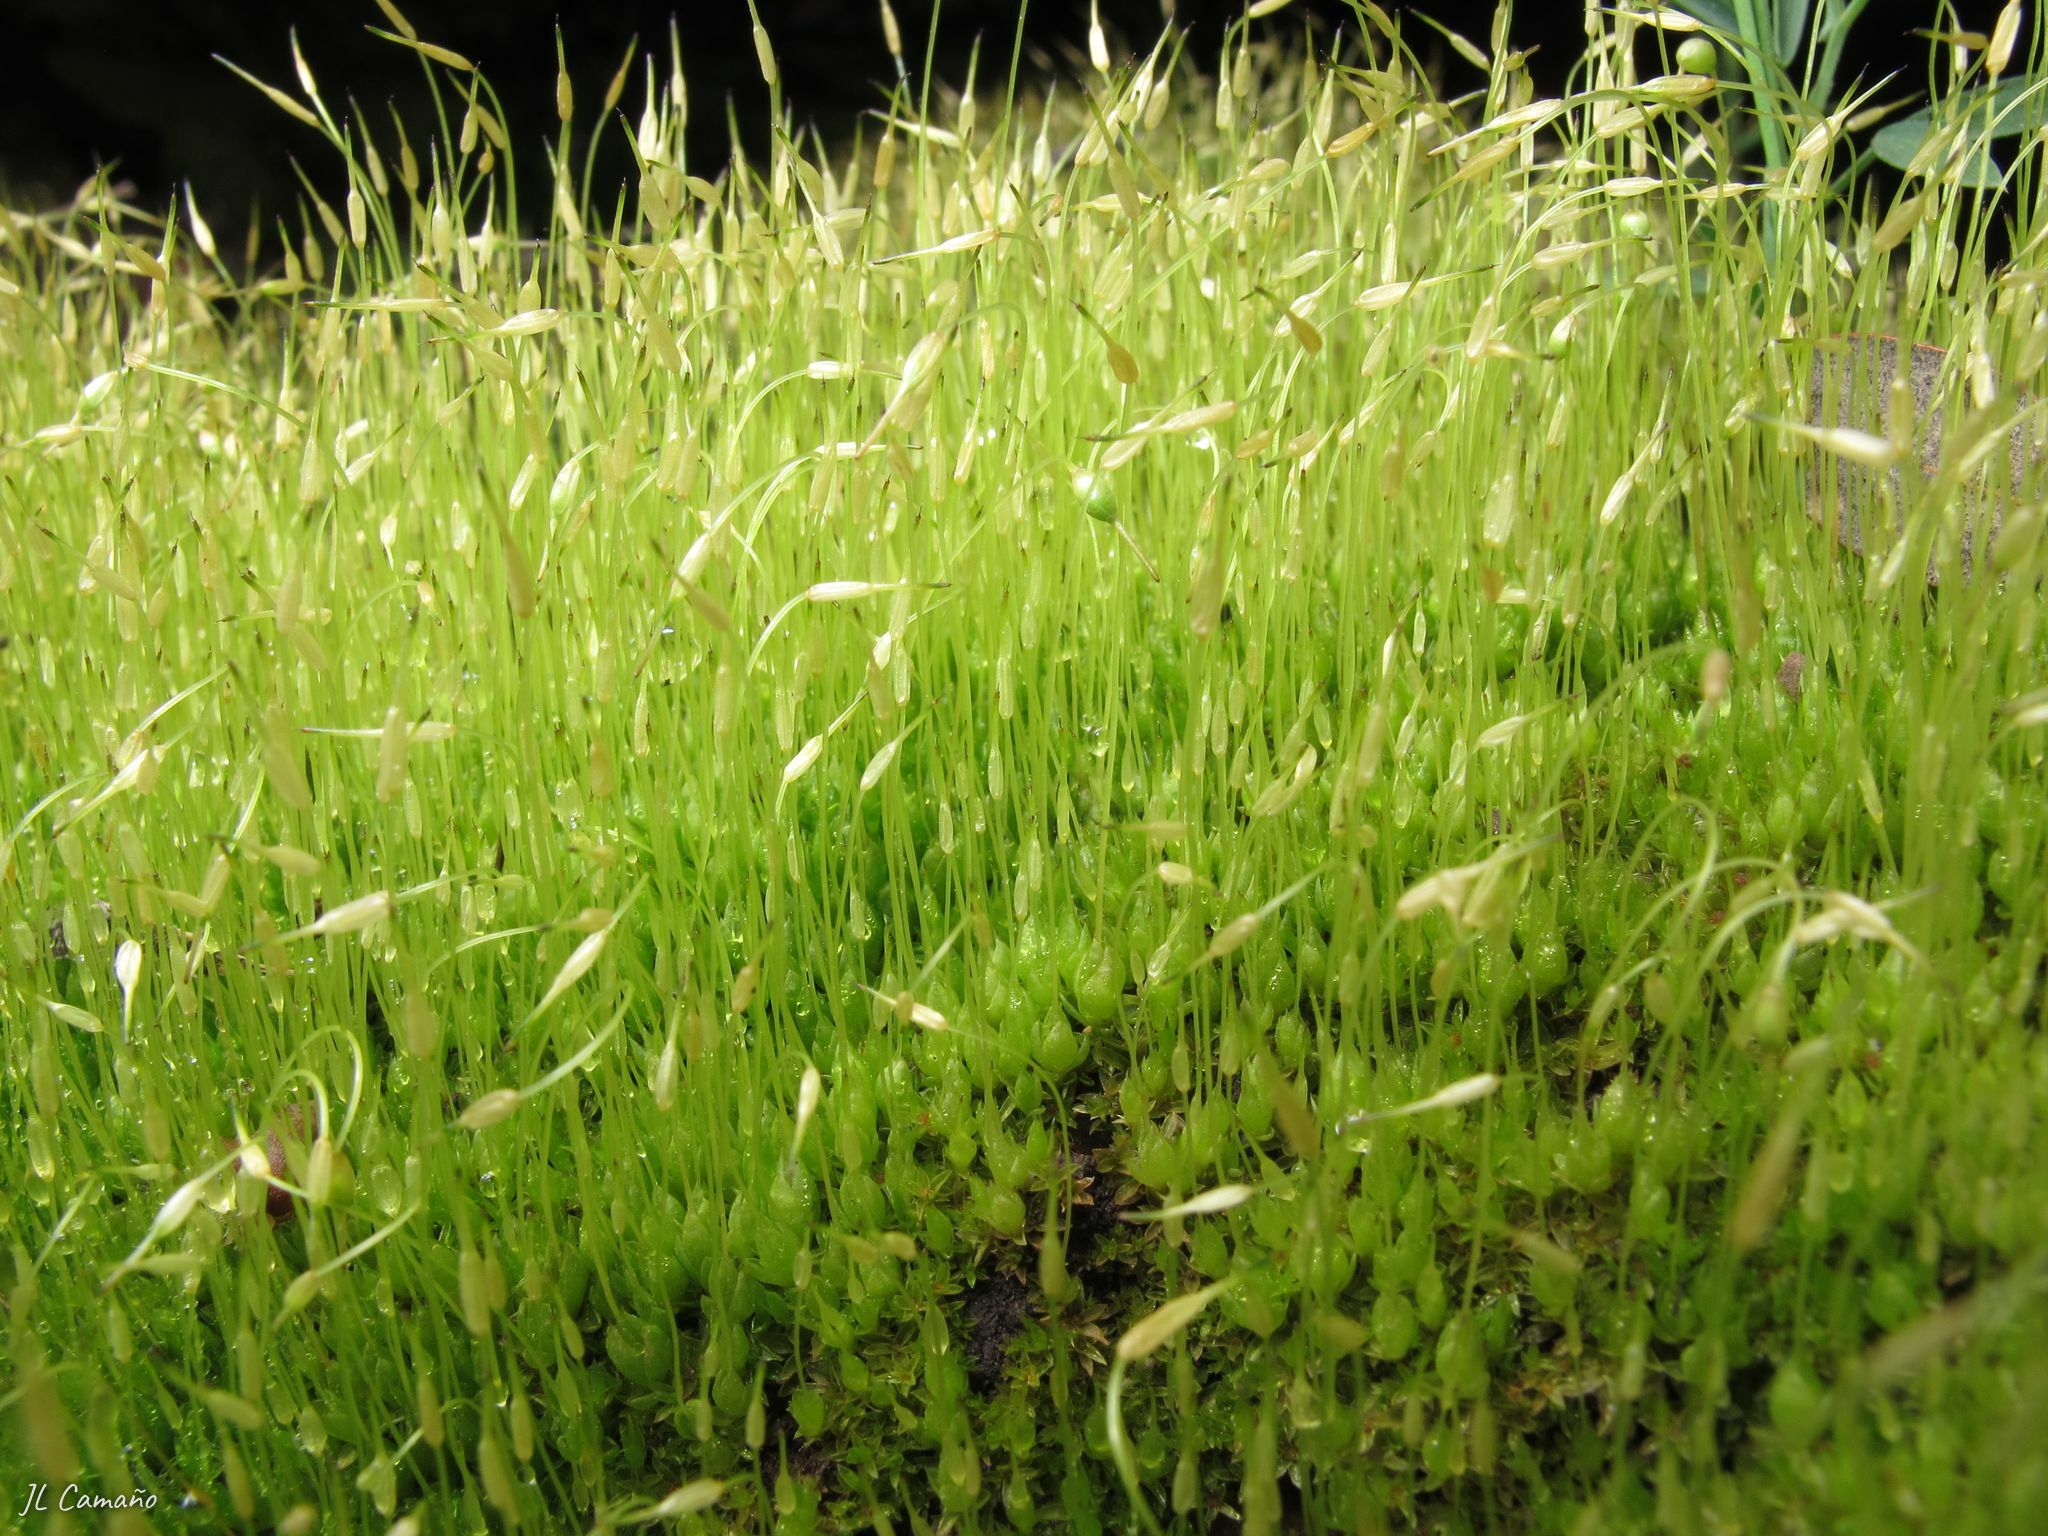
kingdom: Plantae
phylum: Bryophyta
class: Bryopsida
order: Funariales
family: Funariaceae
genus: Funaria
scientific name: Funaria hygrometrica
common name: Common cord moss
